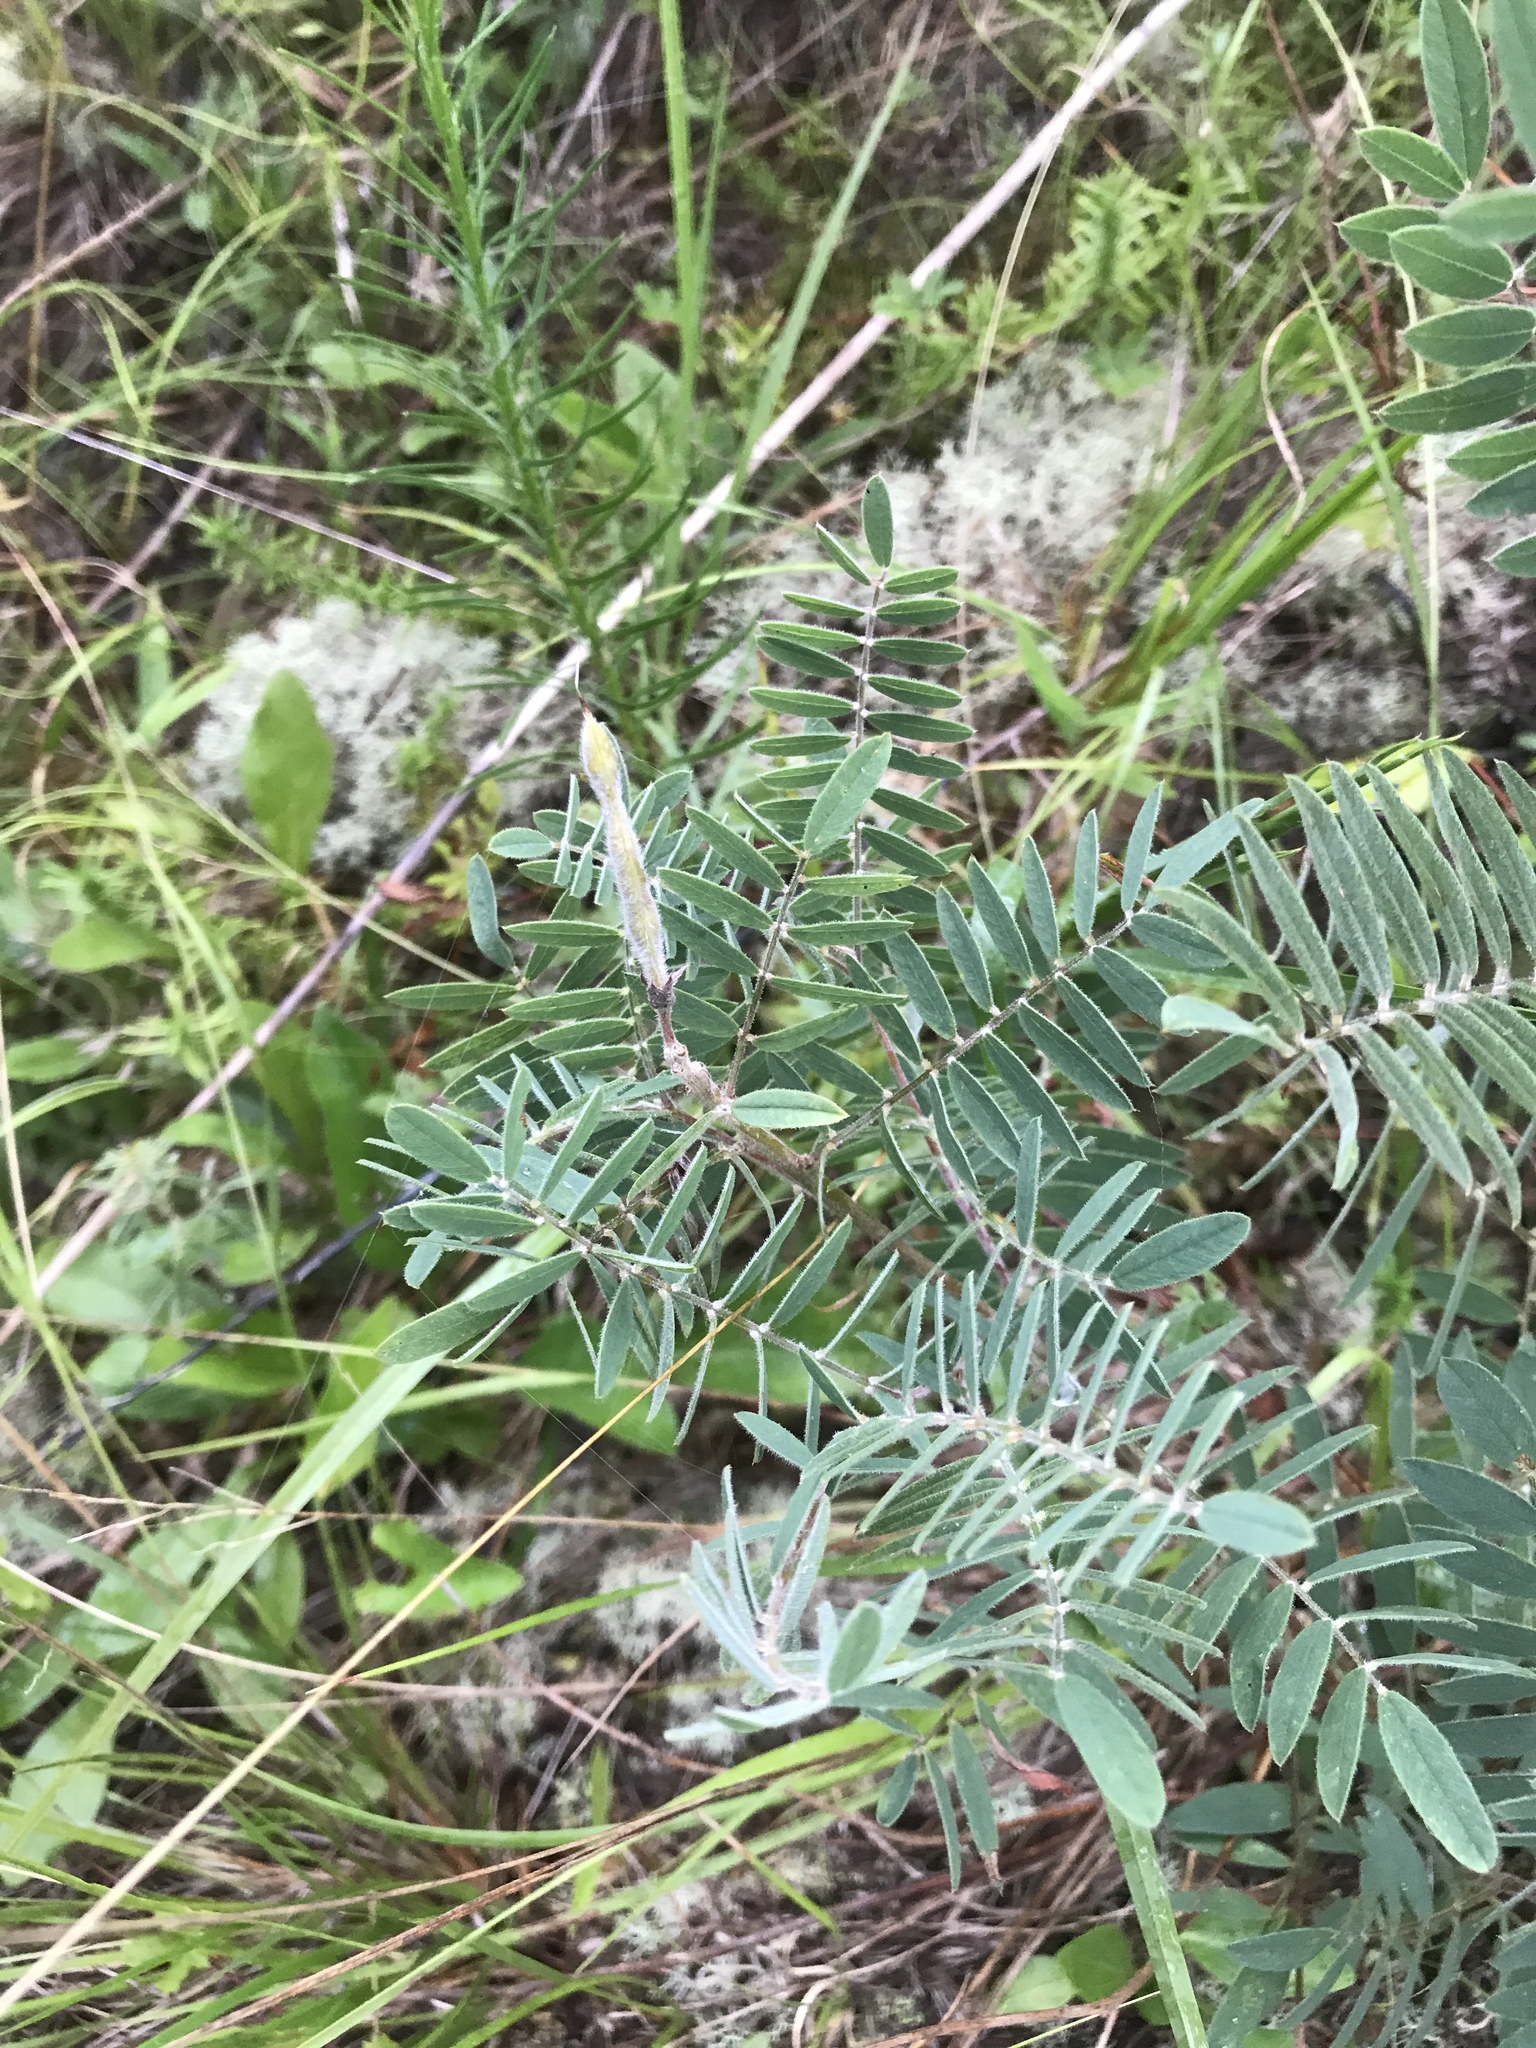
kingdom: Plantae
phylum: Tracheophyta
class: Magnoliopsida
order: Fabales
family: Fabaceae
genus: Tephrosia
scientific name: Tephrosia virginiana
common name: Rabbit-pea
